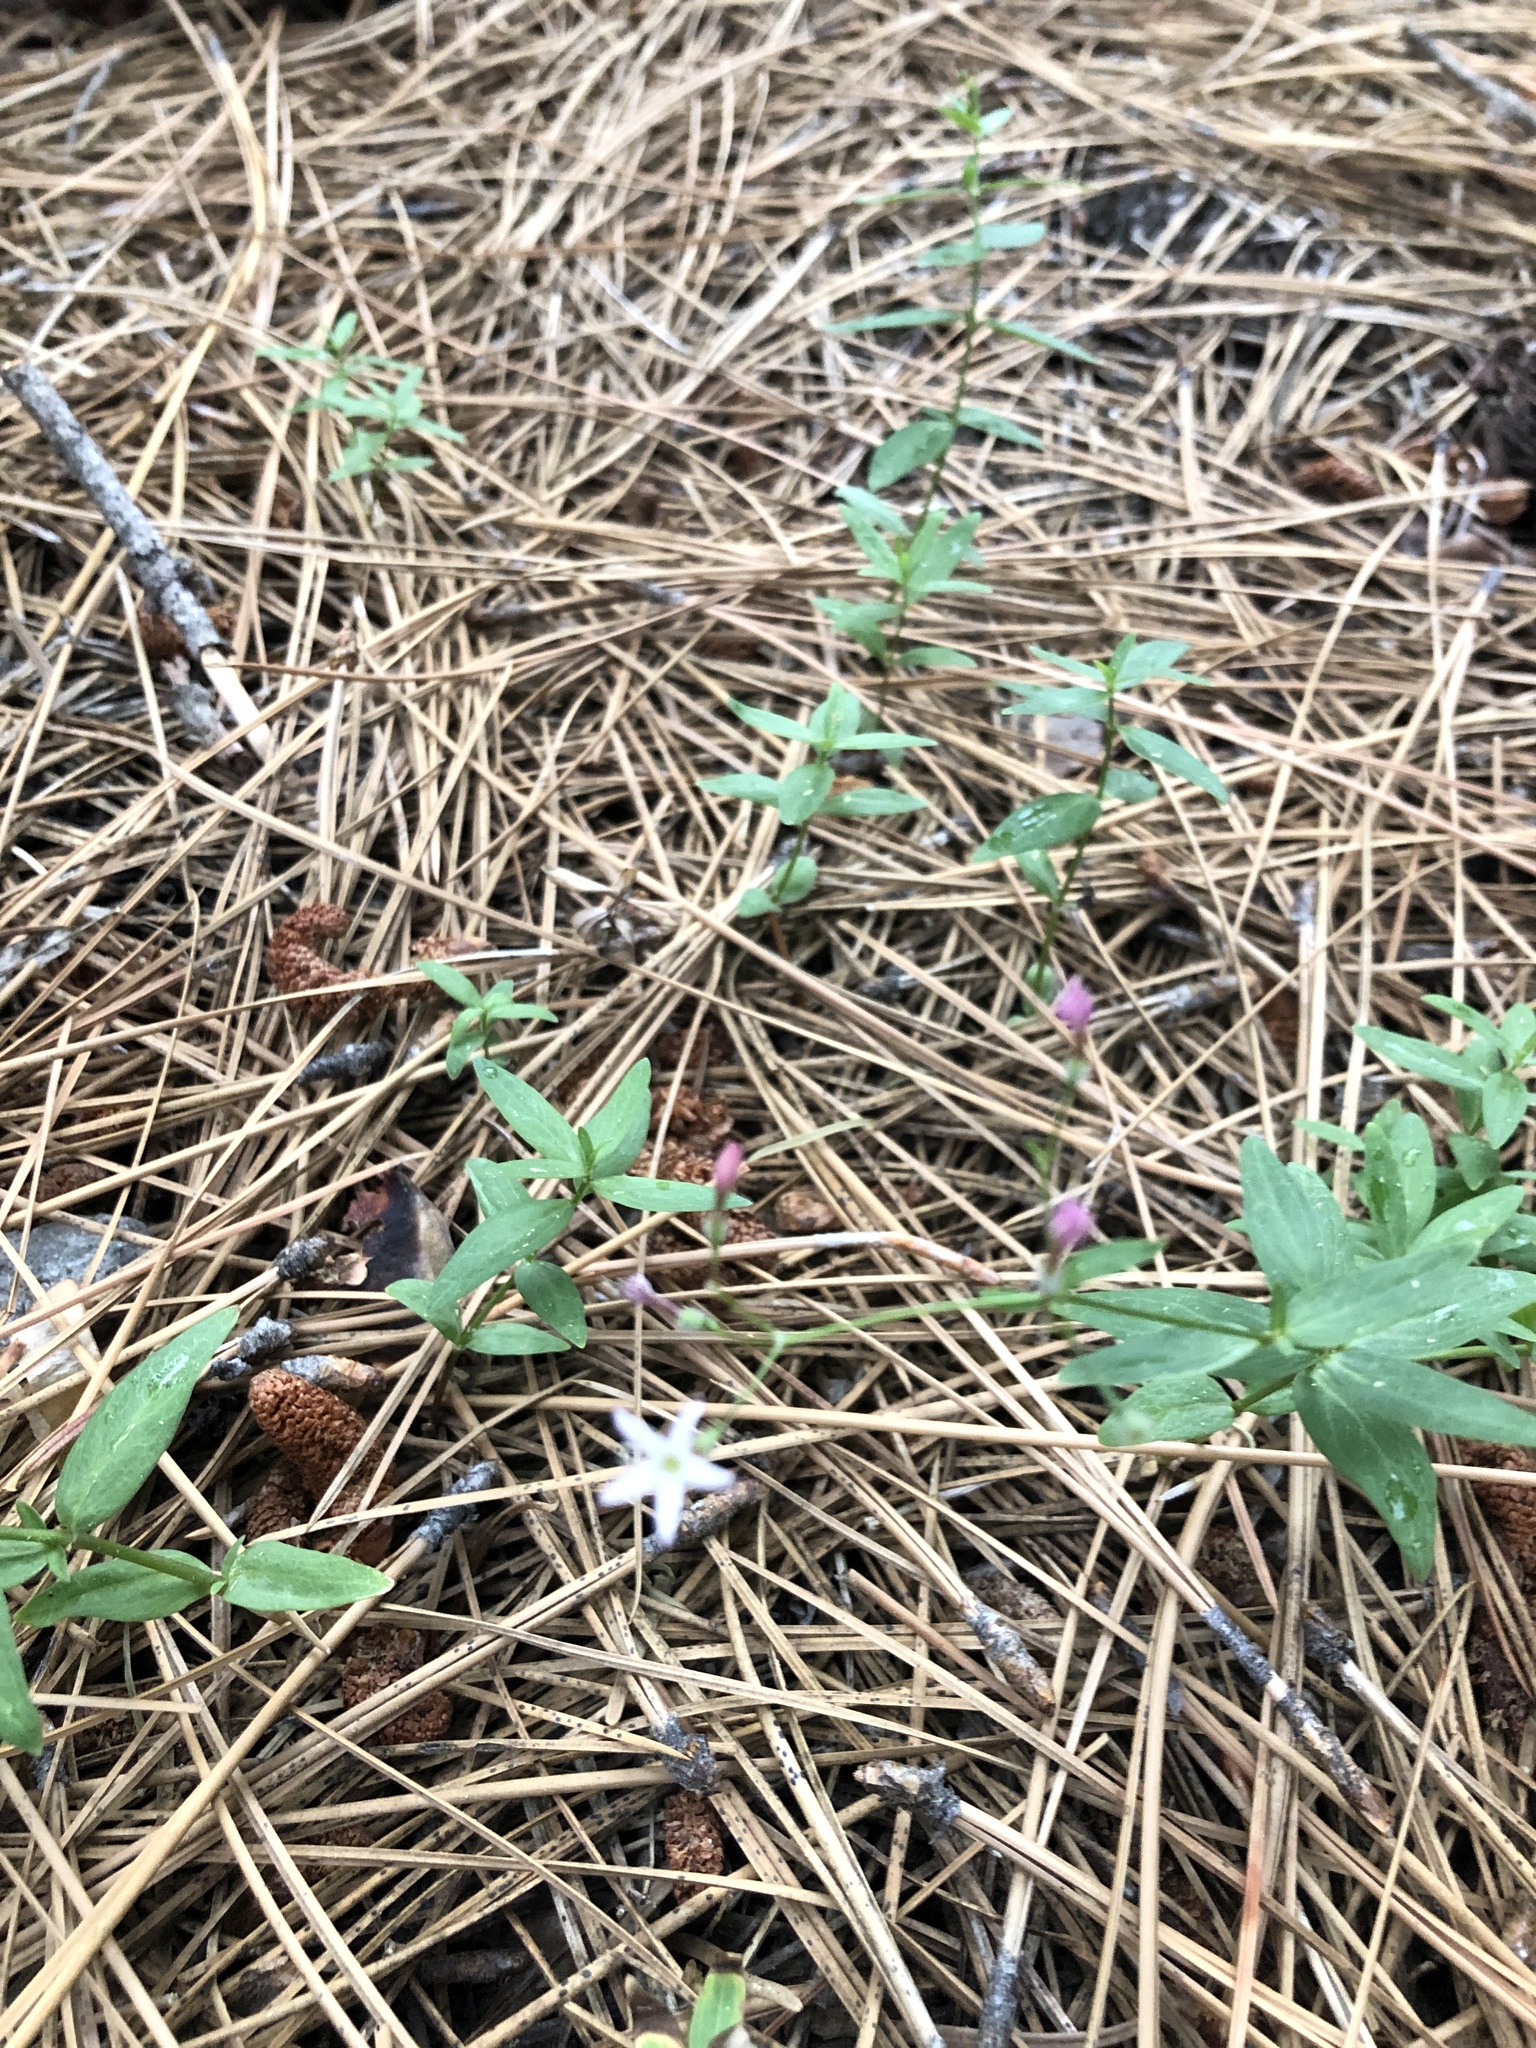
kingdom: Plantae
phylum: Tracheophyta
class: Magnoliopsida
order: Gentianales
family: Rubiaceae
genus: Kelloggia
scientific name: Kelloggia galioides
